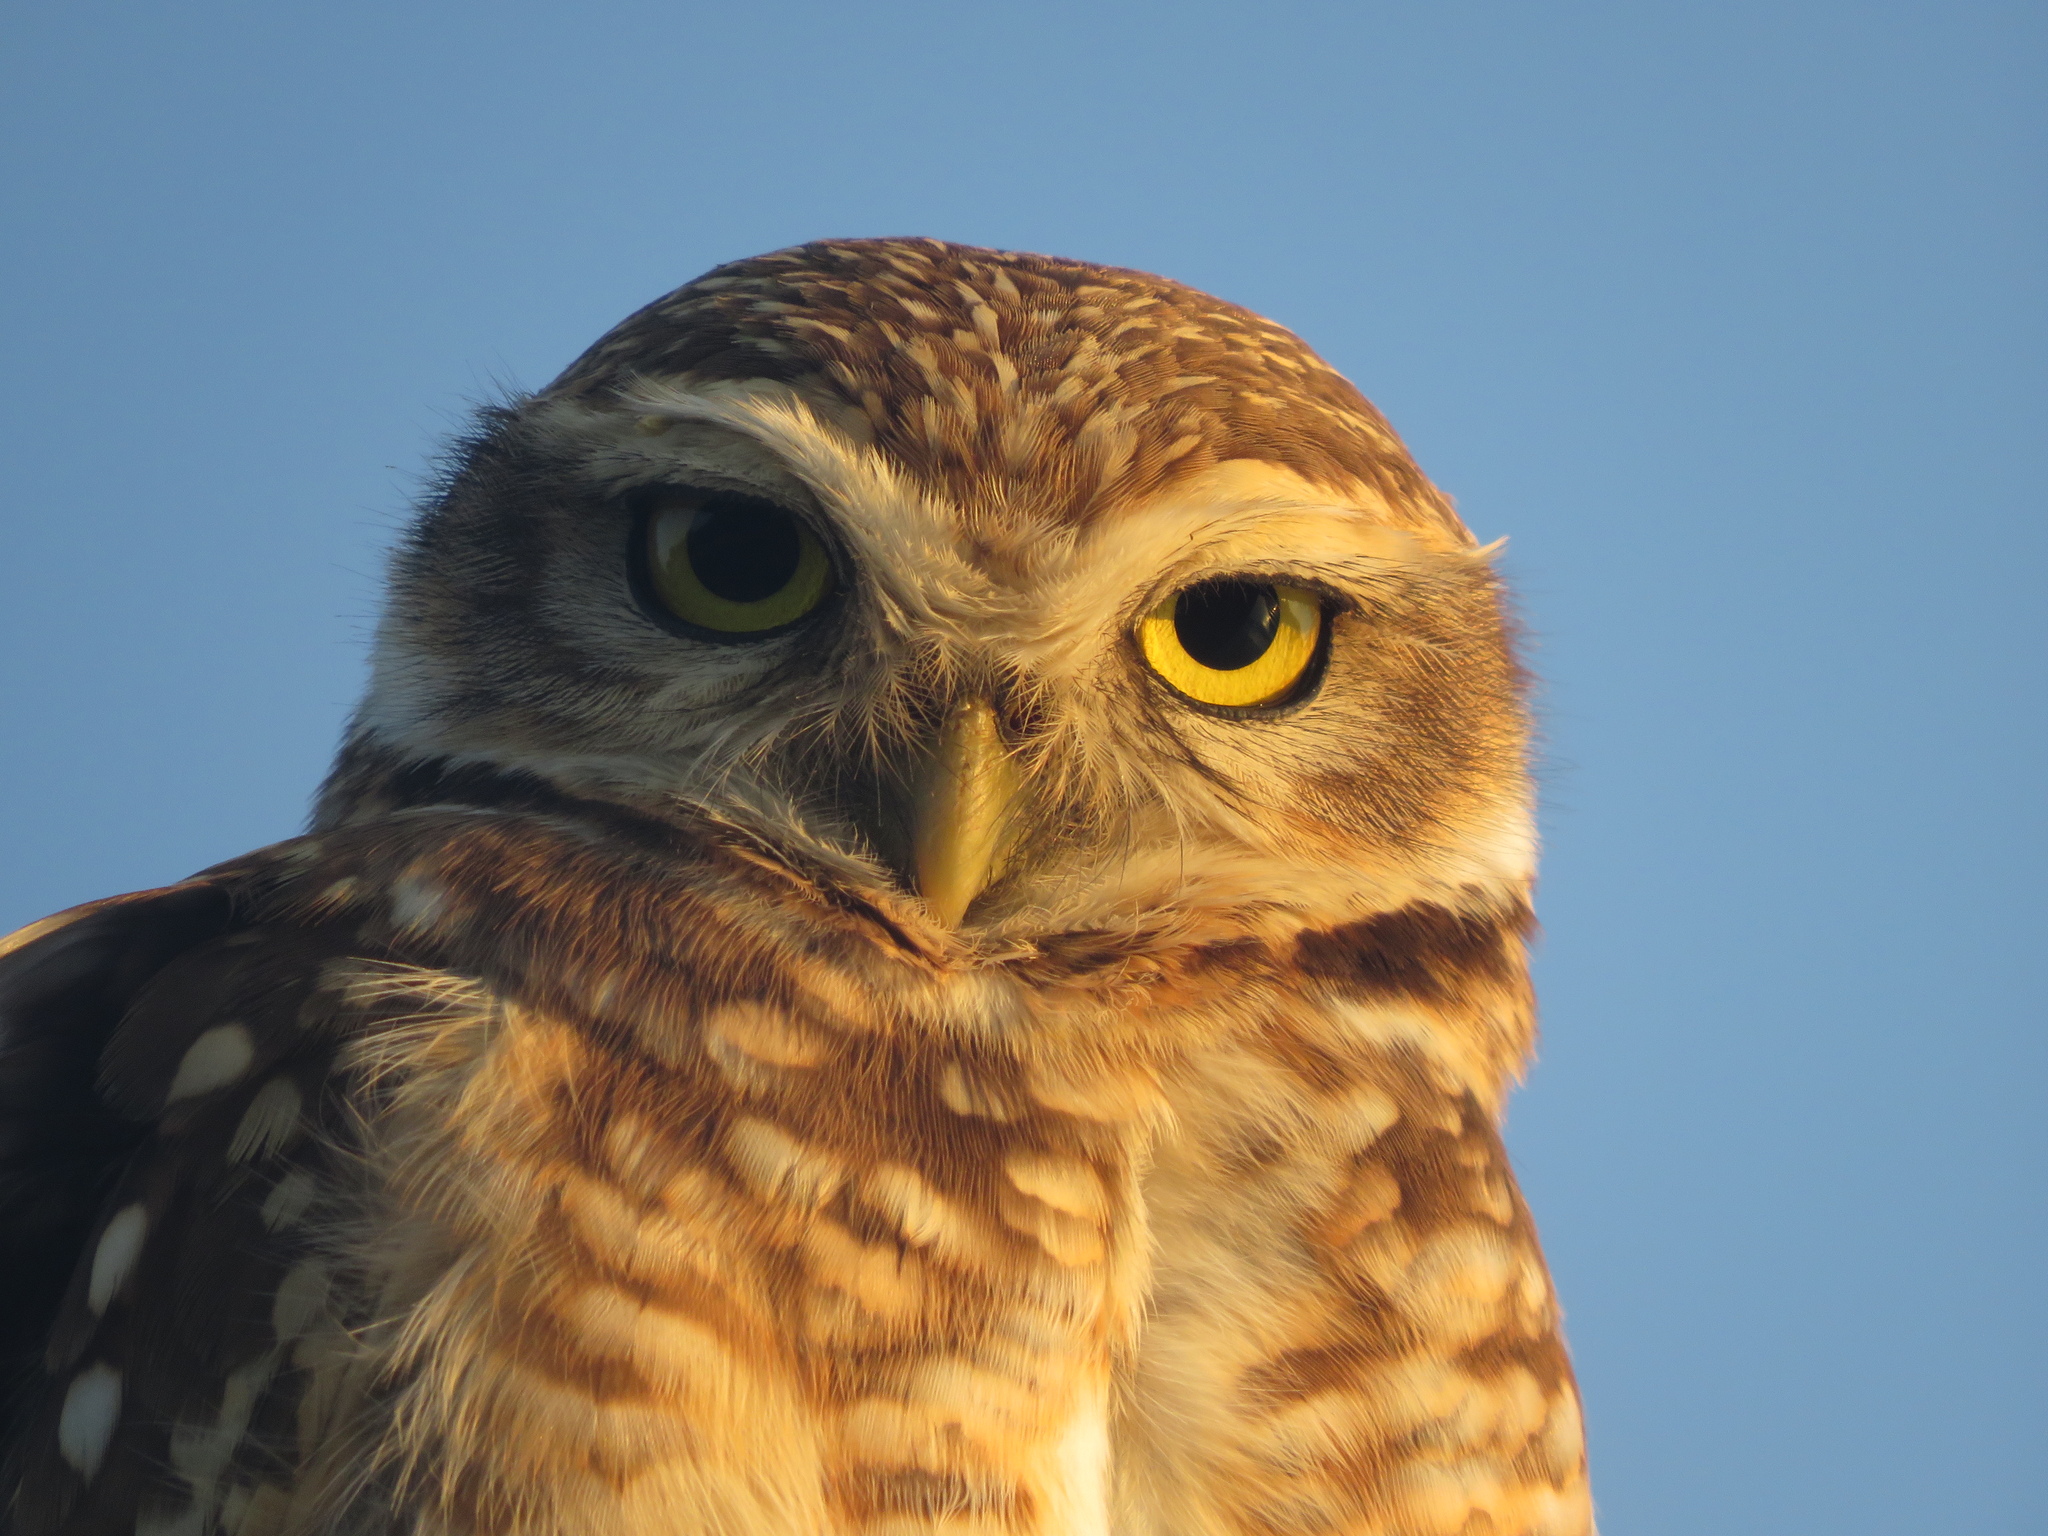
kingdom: Animalia
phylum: Chordata
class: Aves
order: Strigiformes
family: Strigidae
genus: Athene
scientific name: Athene cunicularia
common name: Burrowing owl
